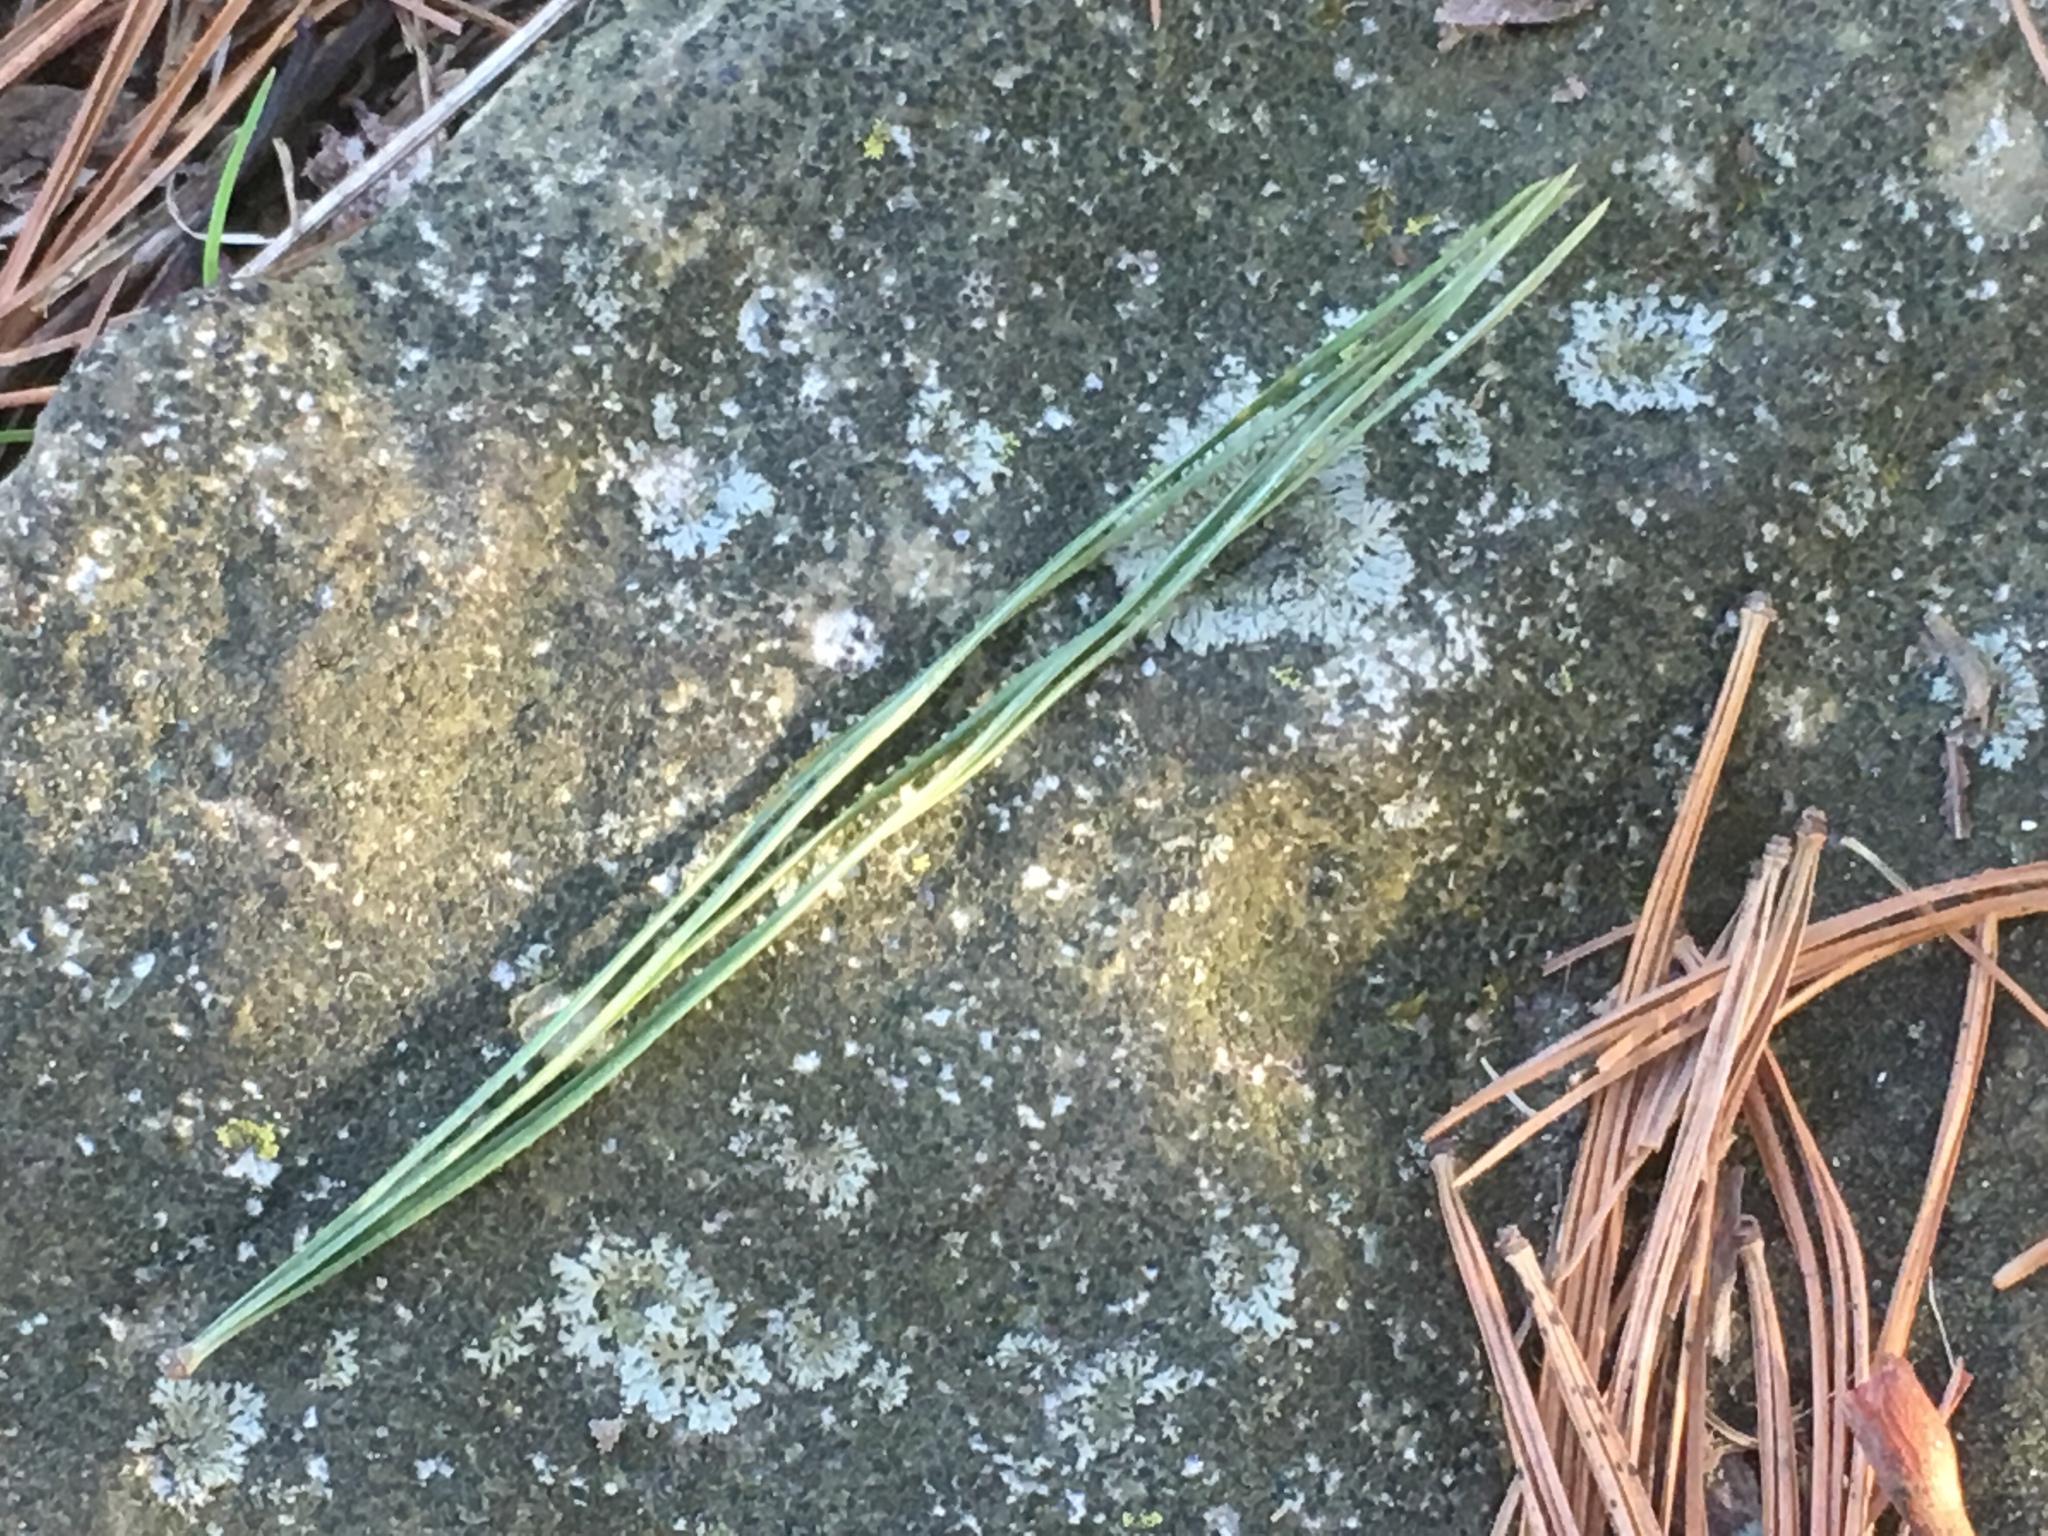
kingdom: Plantae
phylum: Tracheophyta
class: Pinopsida
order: Pinales
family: Pinaceae
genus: Pinus
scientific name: Pinus strobus
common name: Weymouth pine
